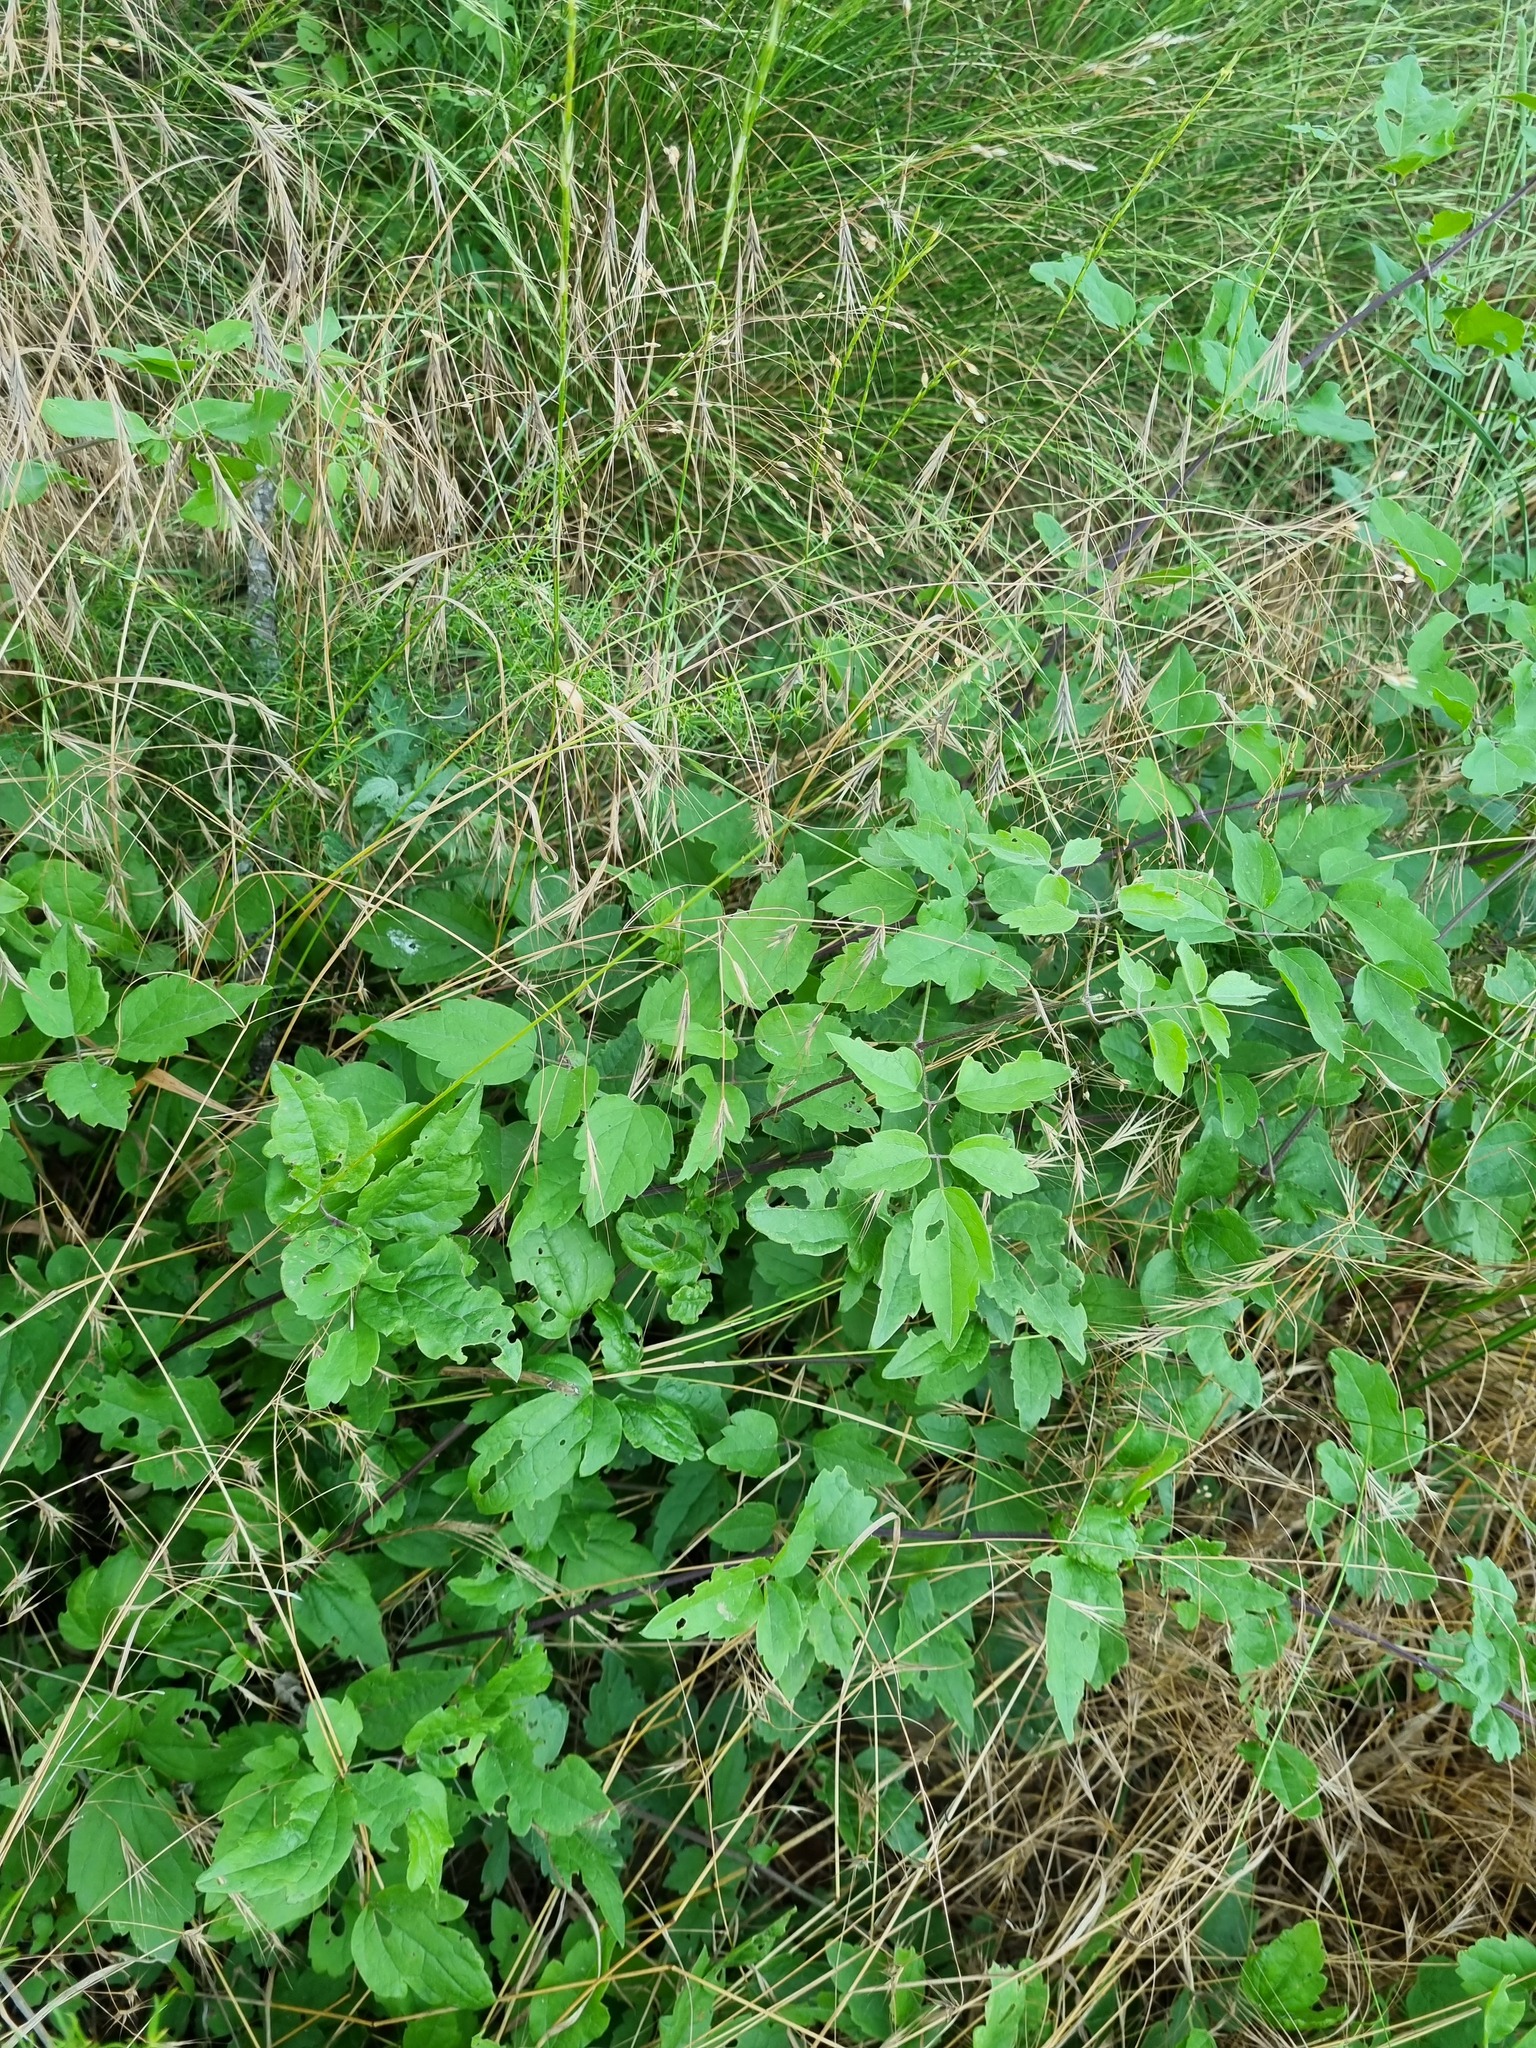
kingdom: Plantae
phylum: Tracheophyta
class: Magnoliopsida
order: Ranunculales
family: Ranunculaceae
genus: Clematis
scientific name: Clematis vitalba
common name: Evergreen clematis
